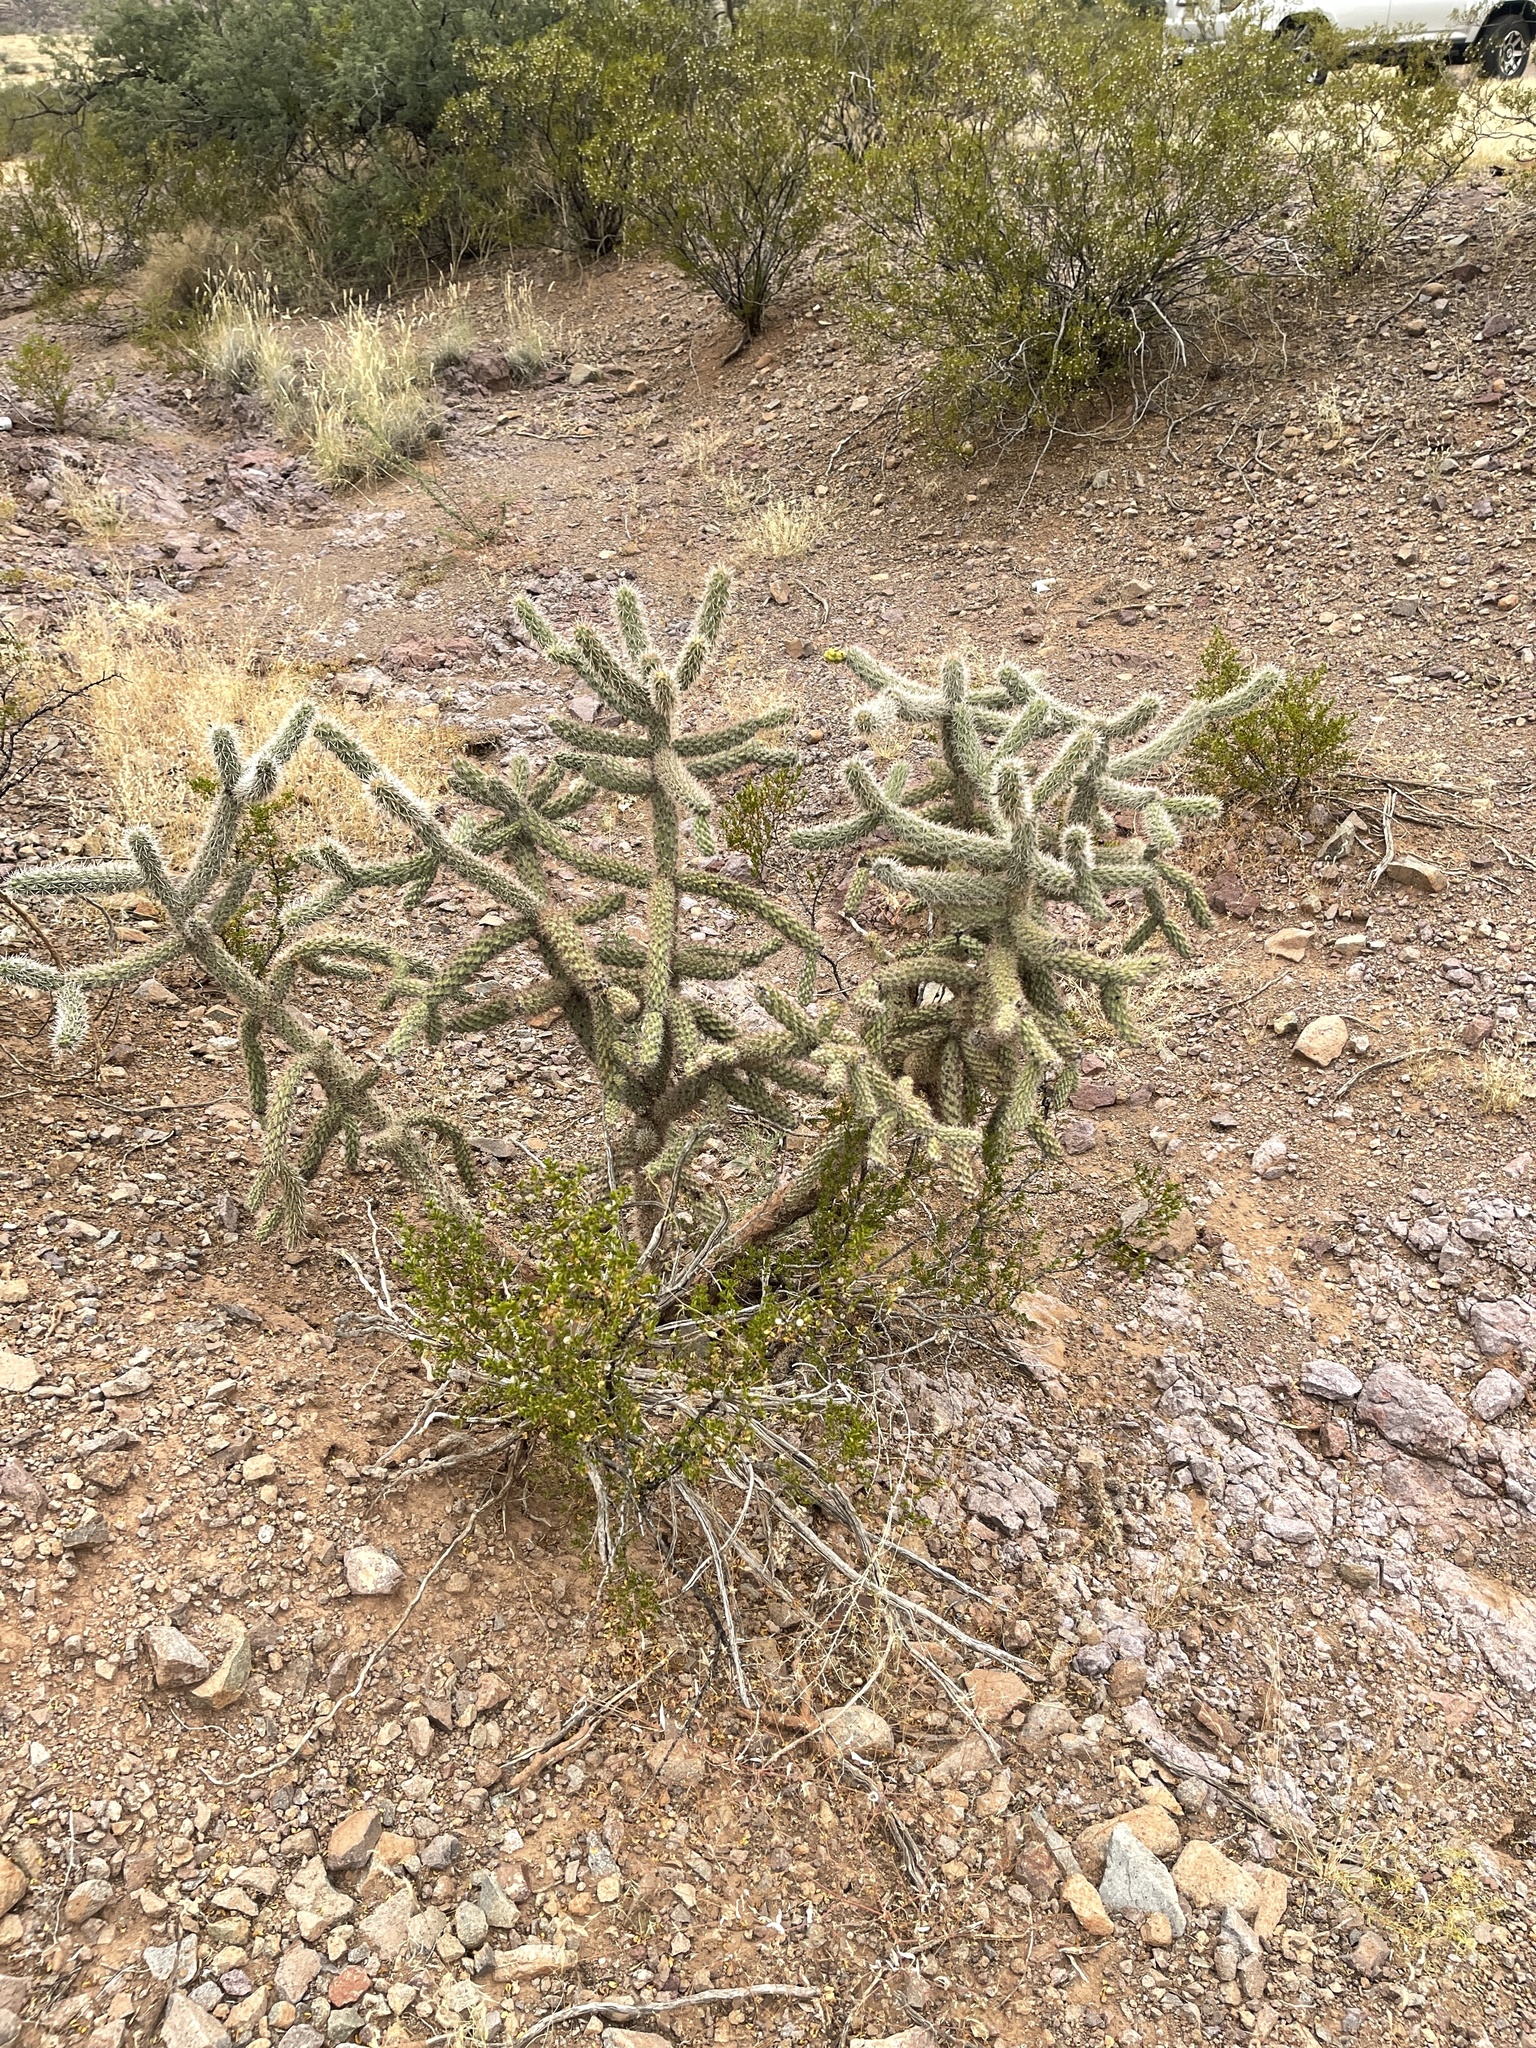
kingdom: Plantae
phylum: Tracheophyta
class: Magnoliopsida
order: Caryophyllales
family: Cactaceae
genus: Cylindropuntia
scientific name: Cylindropuntia imbricata
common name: Candelabrum cactus
